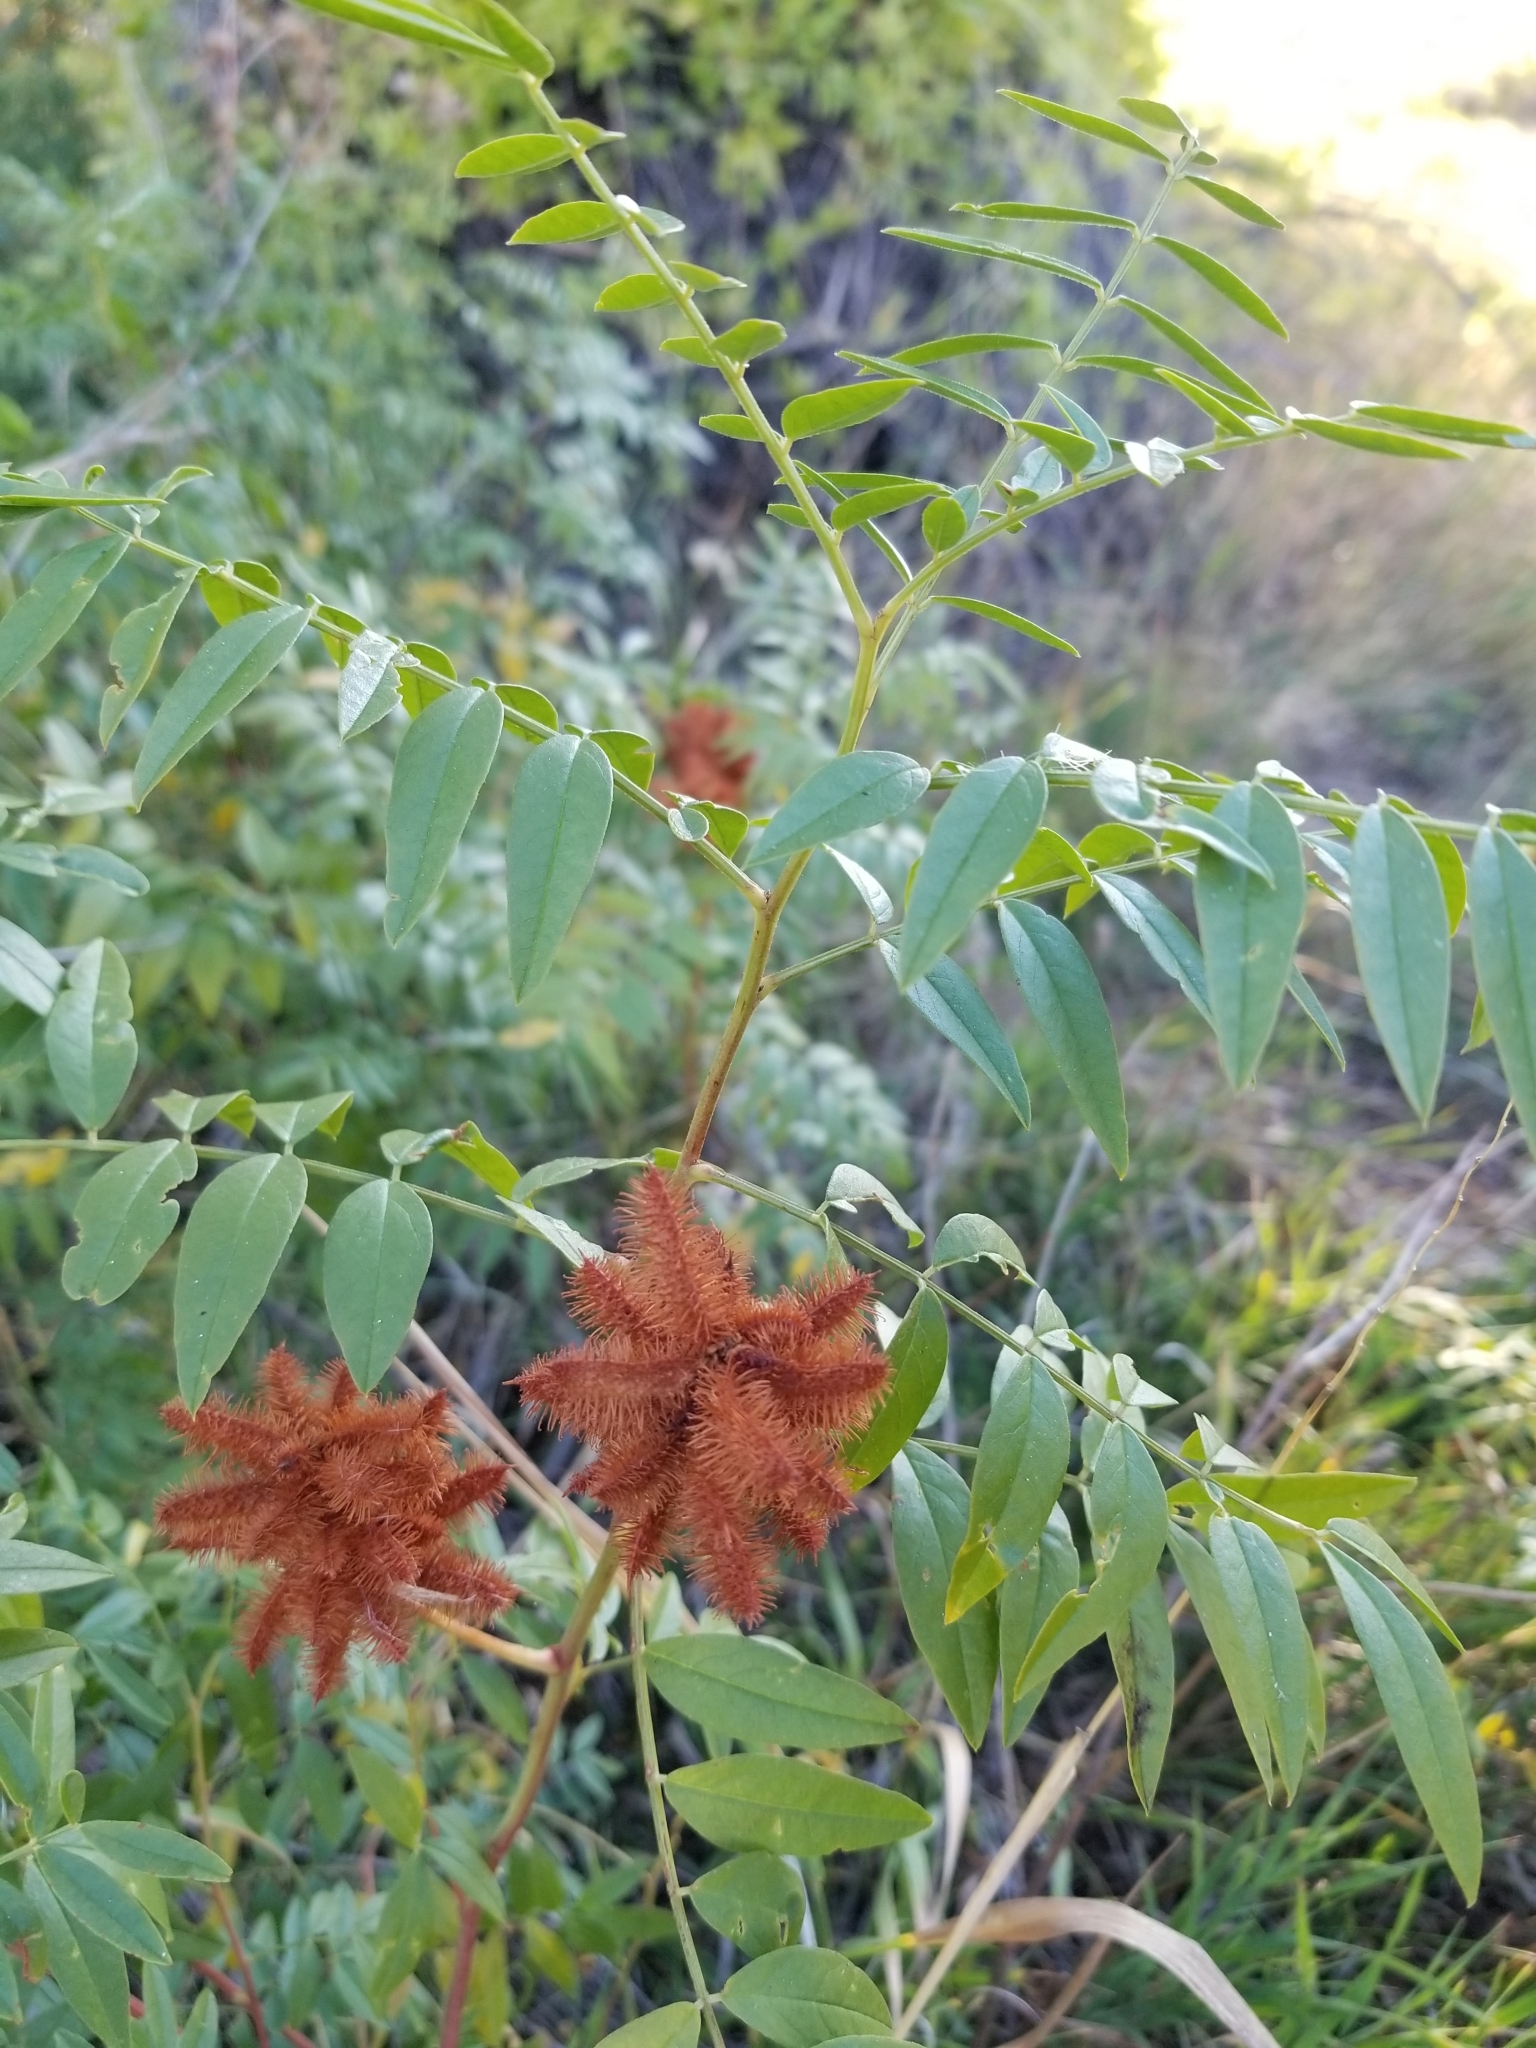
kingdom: Plantae
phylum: Tracheophyta
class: Magnoliopsida
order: Fabales
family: Fabaceae
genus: Glycyrrhiza
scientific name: Glycyrrhiza lepidota
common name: American liquorice
